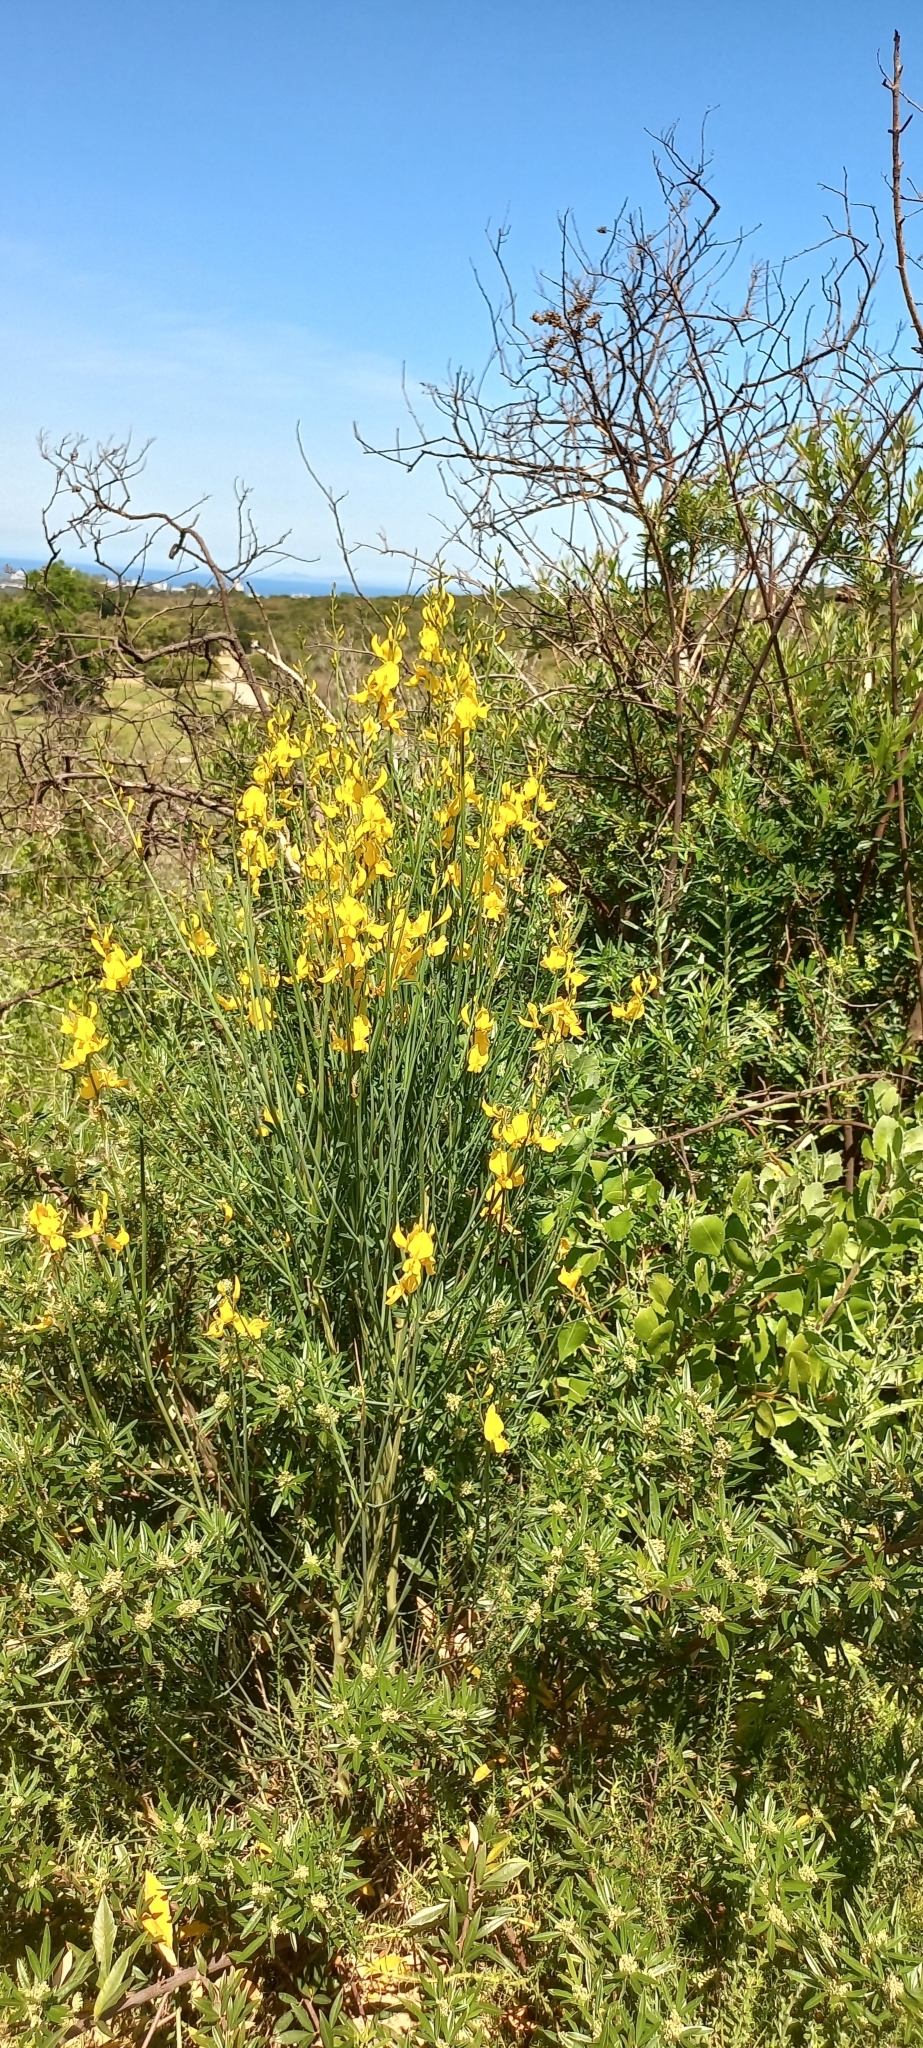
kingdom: Plantae
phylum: Tracheophyta
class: Magnoliopsida
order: Fabales
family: Fabaceae
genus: Spartium
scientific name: Spartium junceum
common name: Spanish broom
